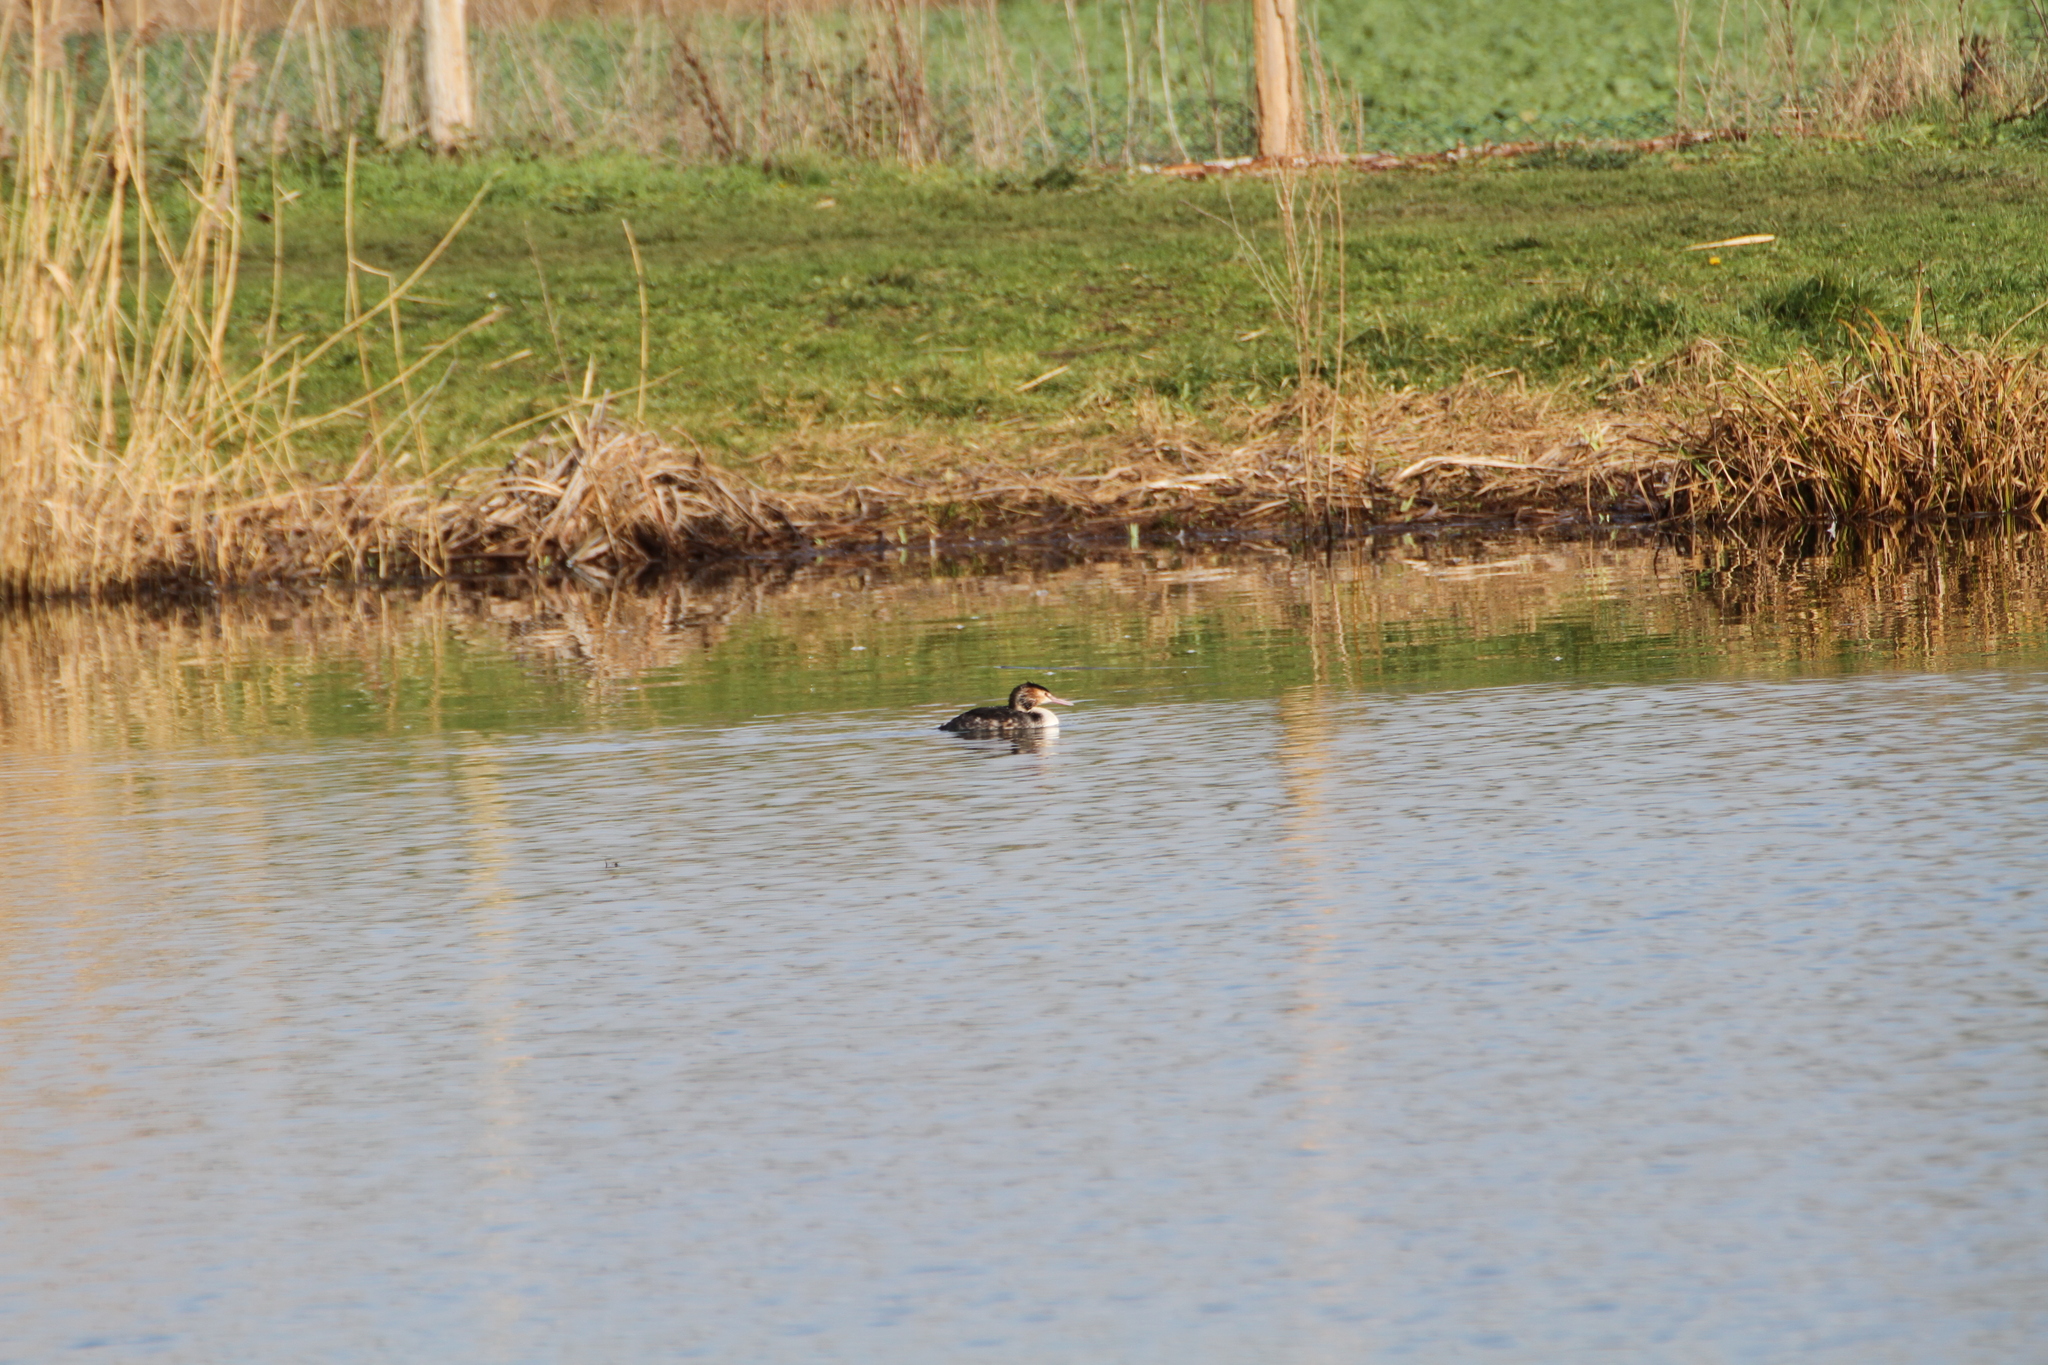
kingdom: Animalia
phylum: Chordata
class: Aves
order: Podicipediformes
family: Podicipedidae
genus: Podiceps
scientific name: Podiceps cristatus
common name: Great crested grebe
